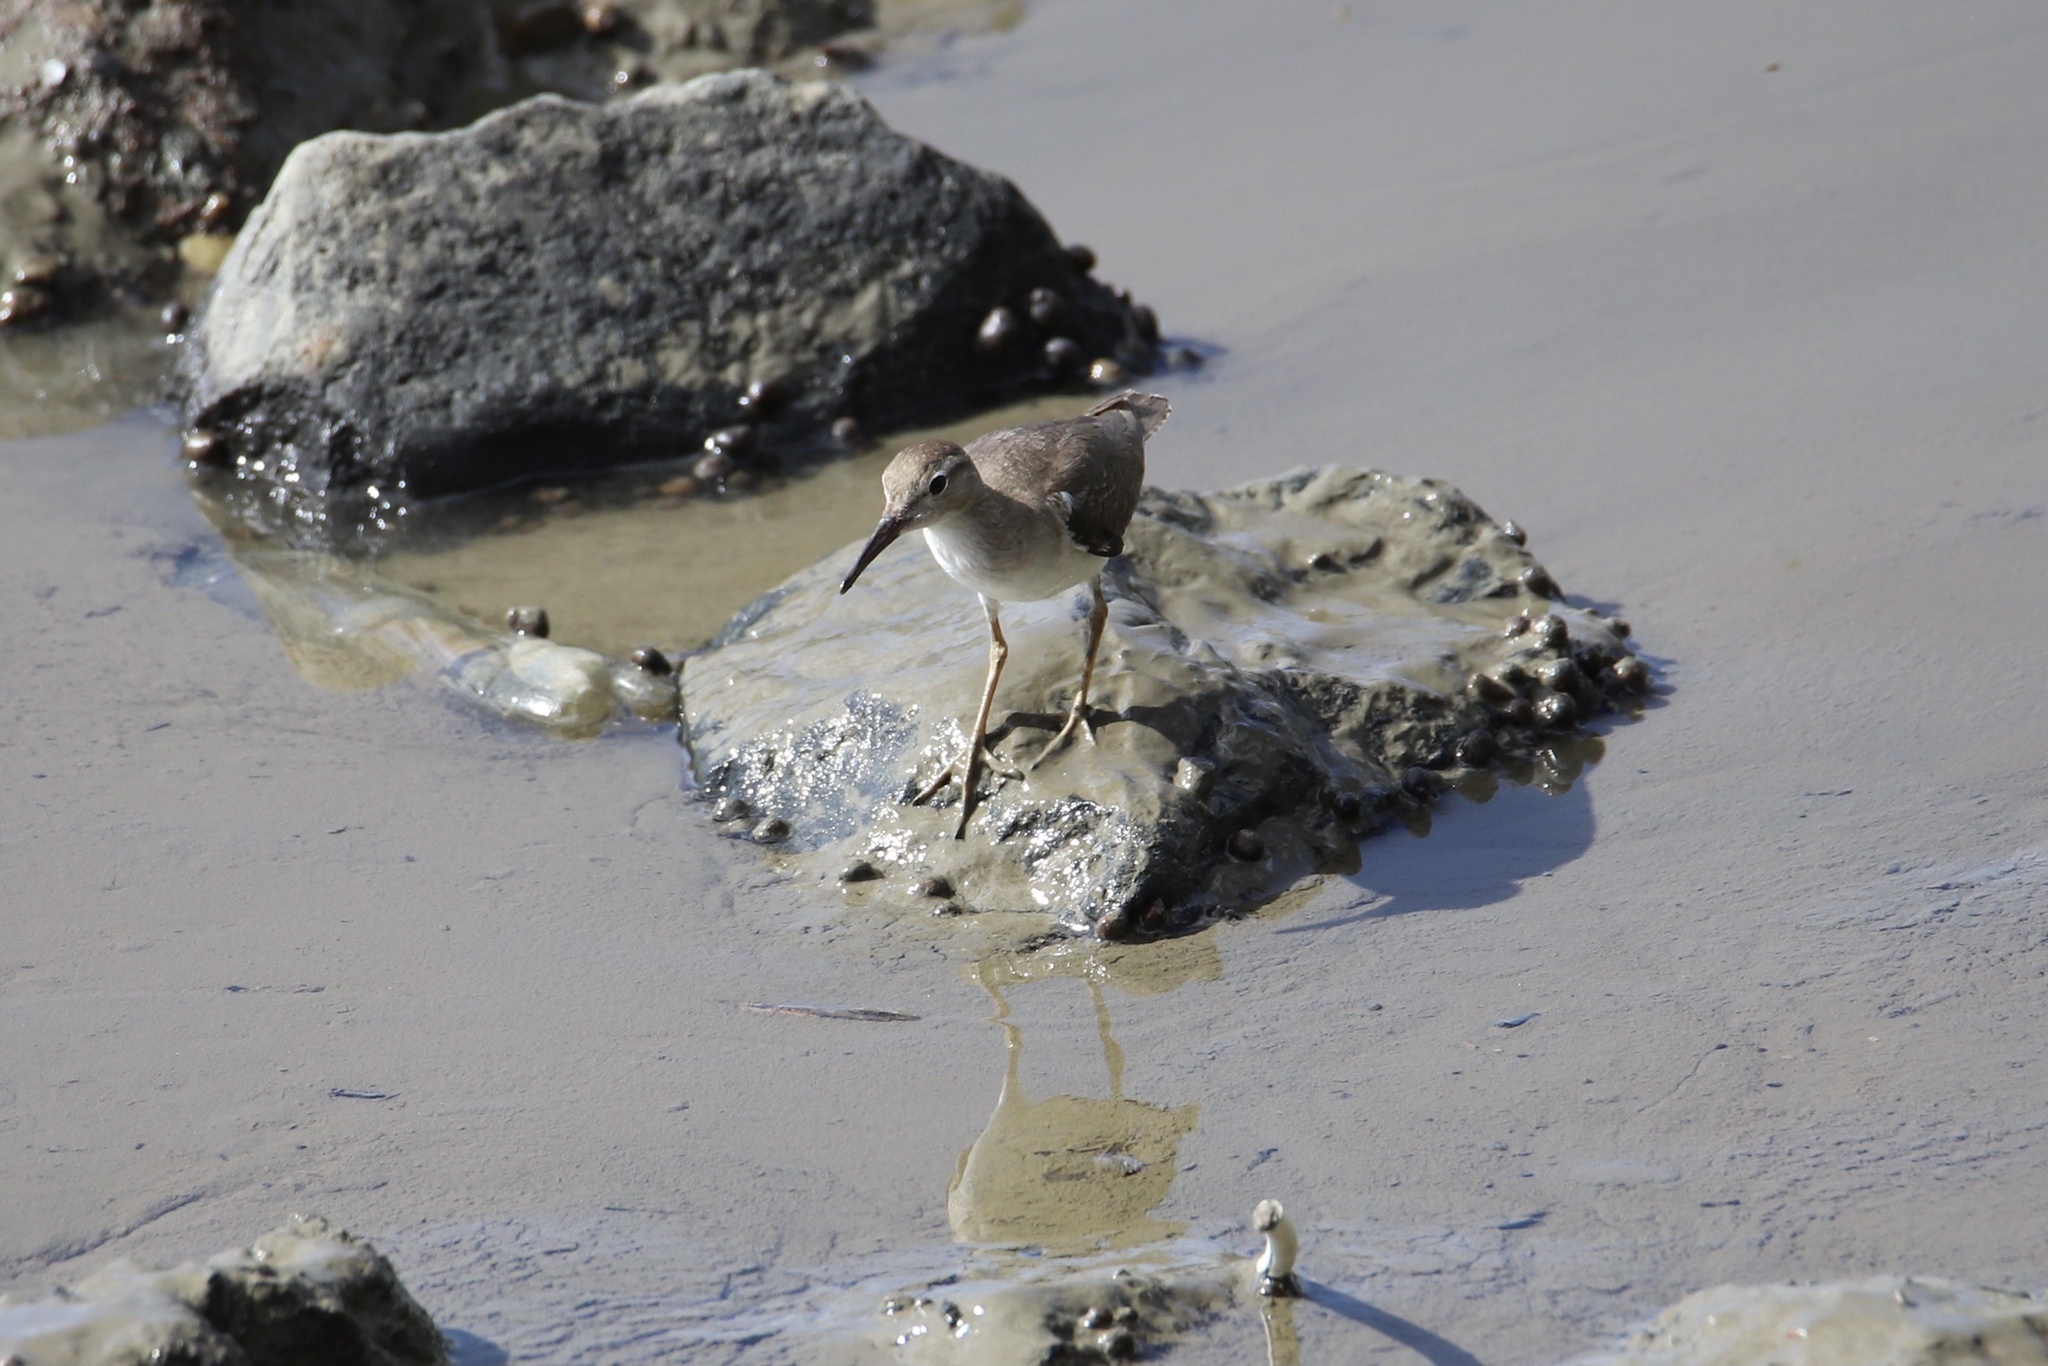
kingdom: Animalia
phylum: Chordata
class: Aves
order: Charadriiformes
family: Scolopacidae
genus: Actitis
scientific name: Actitis macularius
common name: Spotted sandpiper
